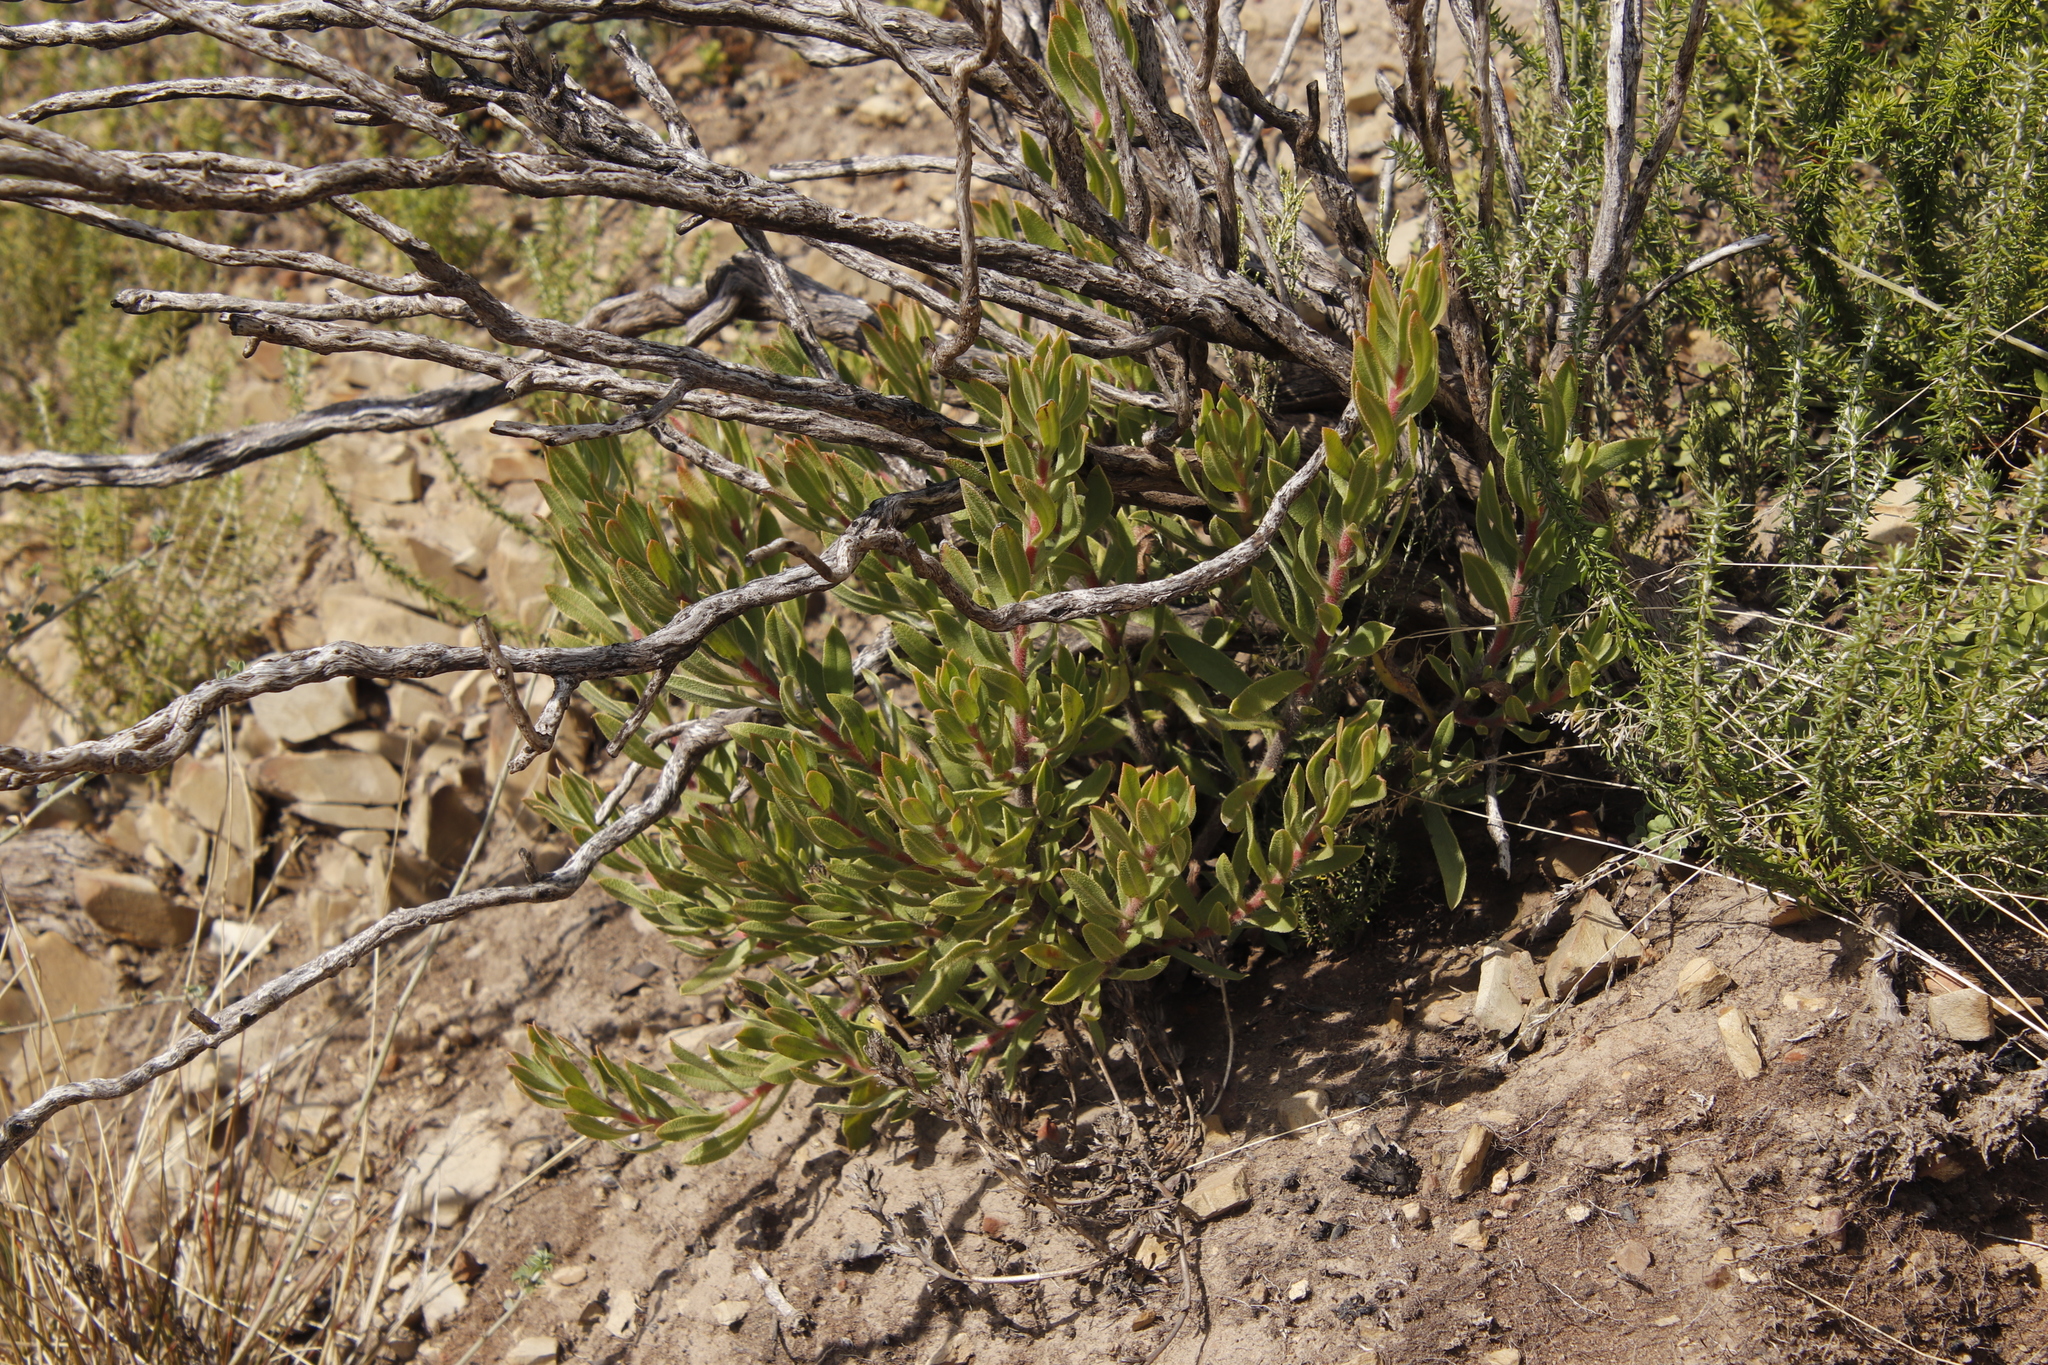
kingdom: Plantae
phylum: Tracheophyta
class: Magnoliopsida
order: Boraginales
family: Boraginaceae
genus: Lobostemon
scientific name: Lobostemon fruticosus
